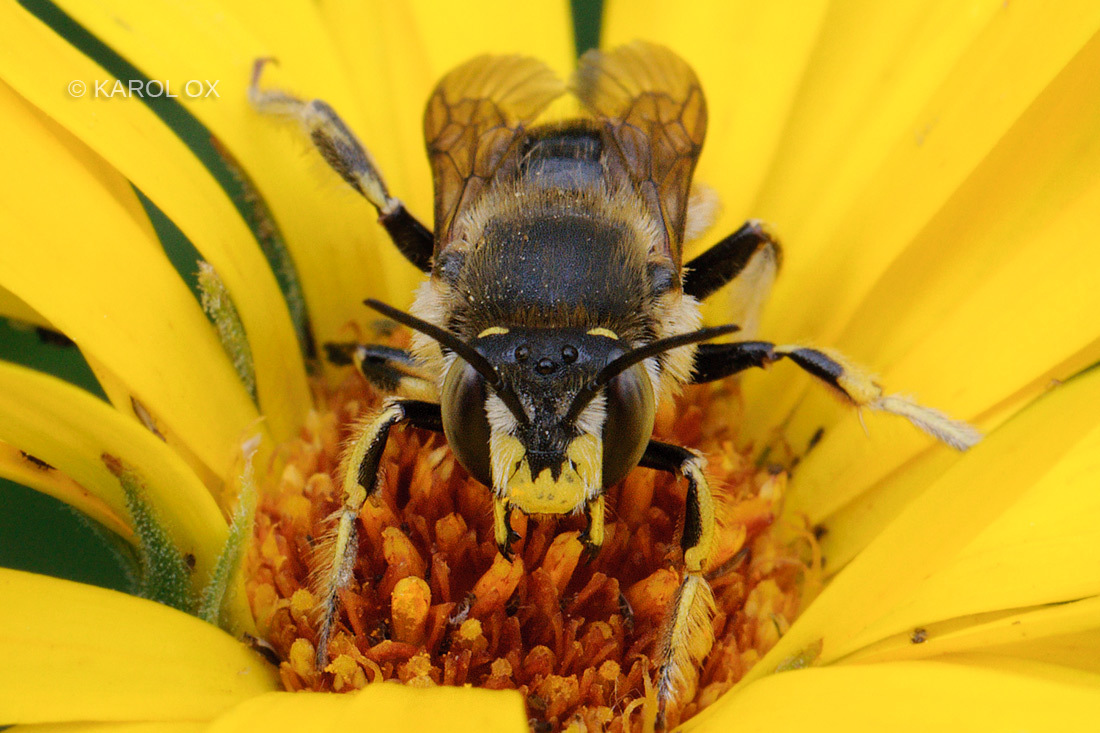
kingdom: Animalia
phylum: Arthropoda
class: Insecta
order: Hymenoptera
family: Megachilidae
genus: Anthidium
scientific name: Anthidium manicatum
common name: Wool carder bee
